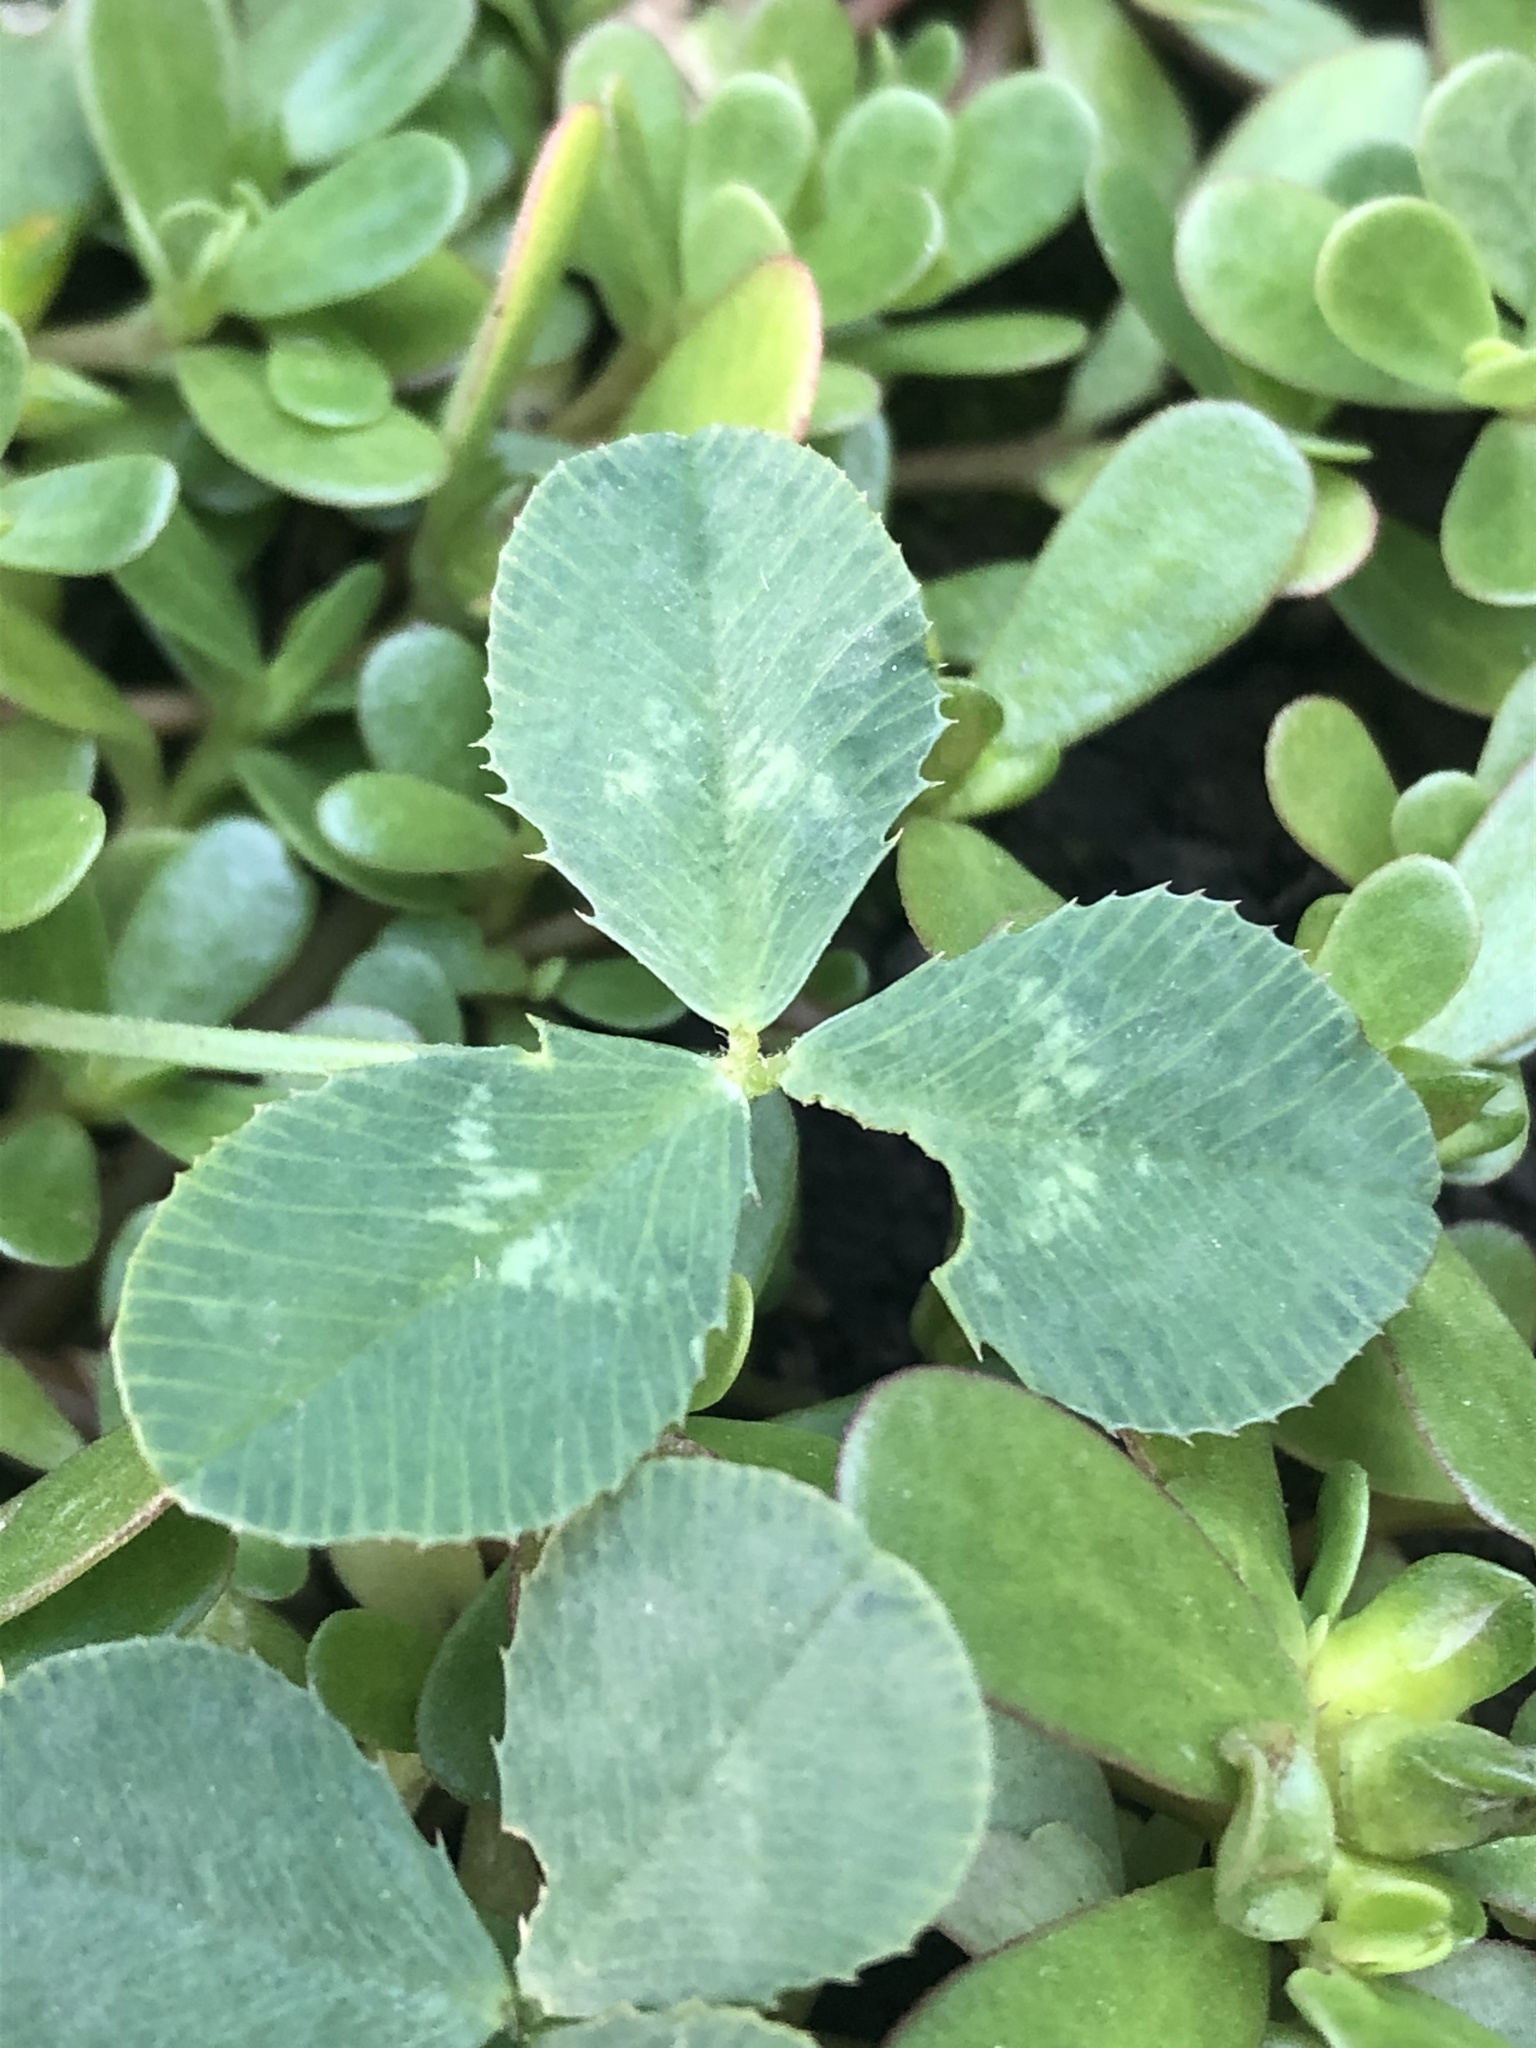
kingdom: Plantae
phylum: Tracheophyta
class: Magnoliopsida
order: Fabales
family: Fabaceae
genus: Trifolium
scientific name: Trifolium repens
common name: White clover
